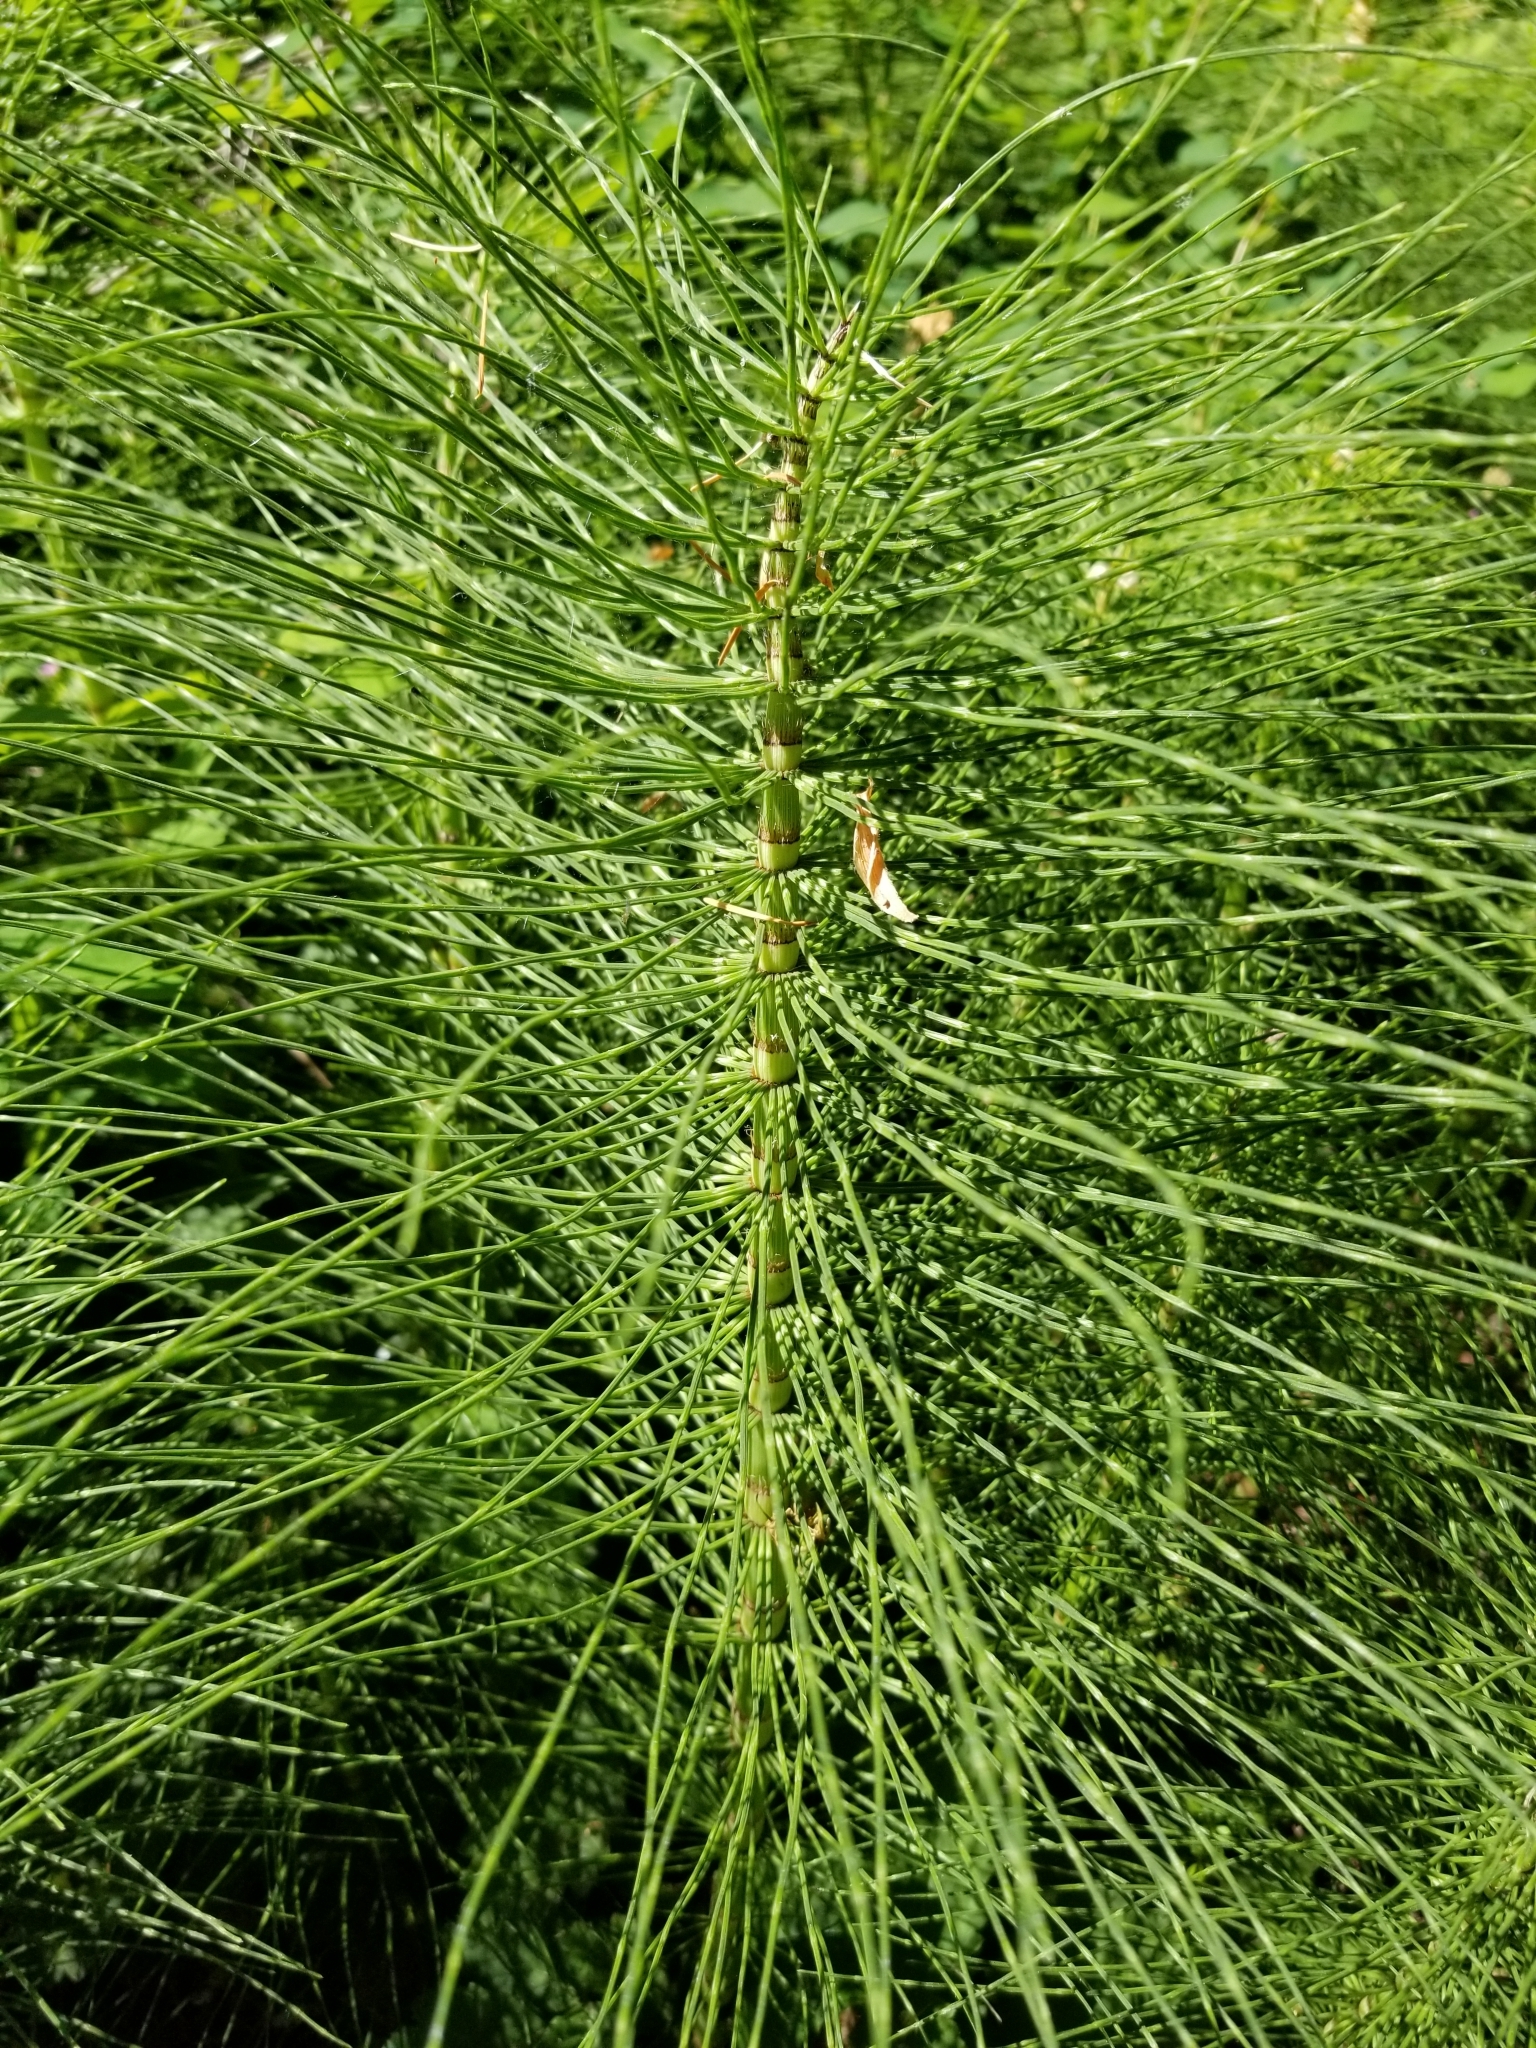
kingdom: Plantae
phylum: Tracheophyta
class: Polypodiopsida
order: Equisetales
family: Equisetaceae
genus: Equisetum
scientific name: Equisetum telmateia
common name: Great horsetail
